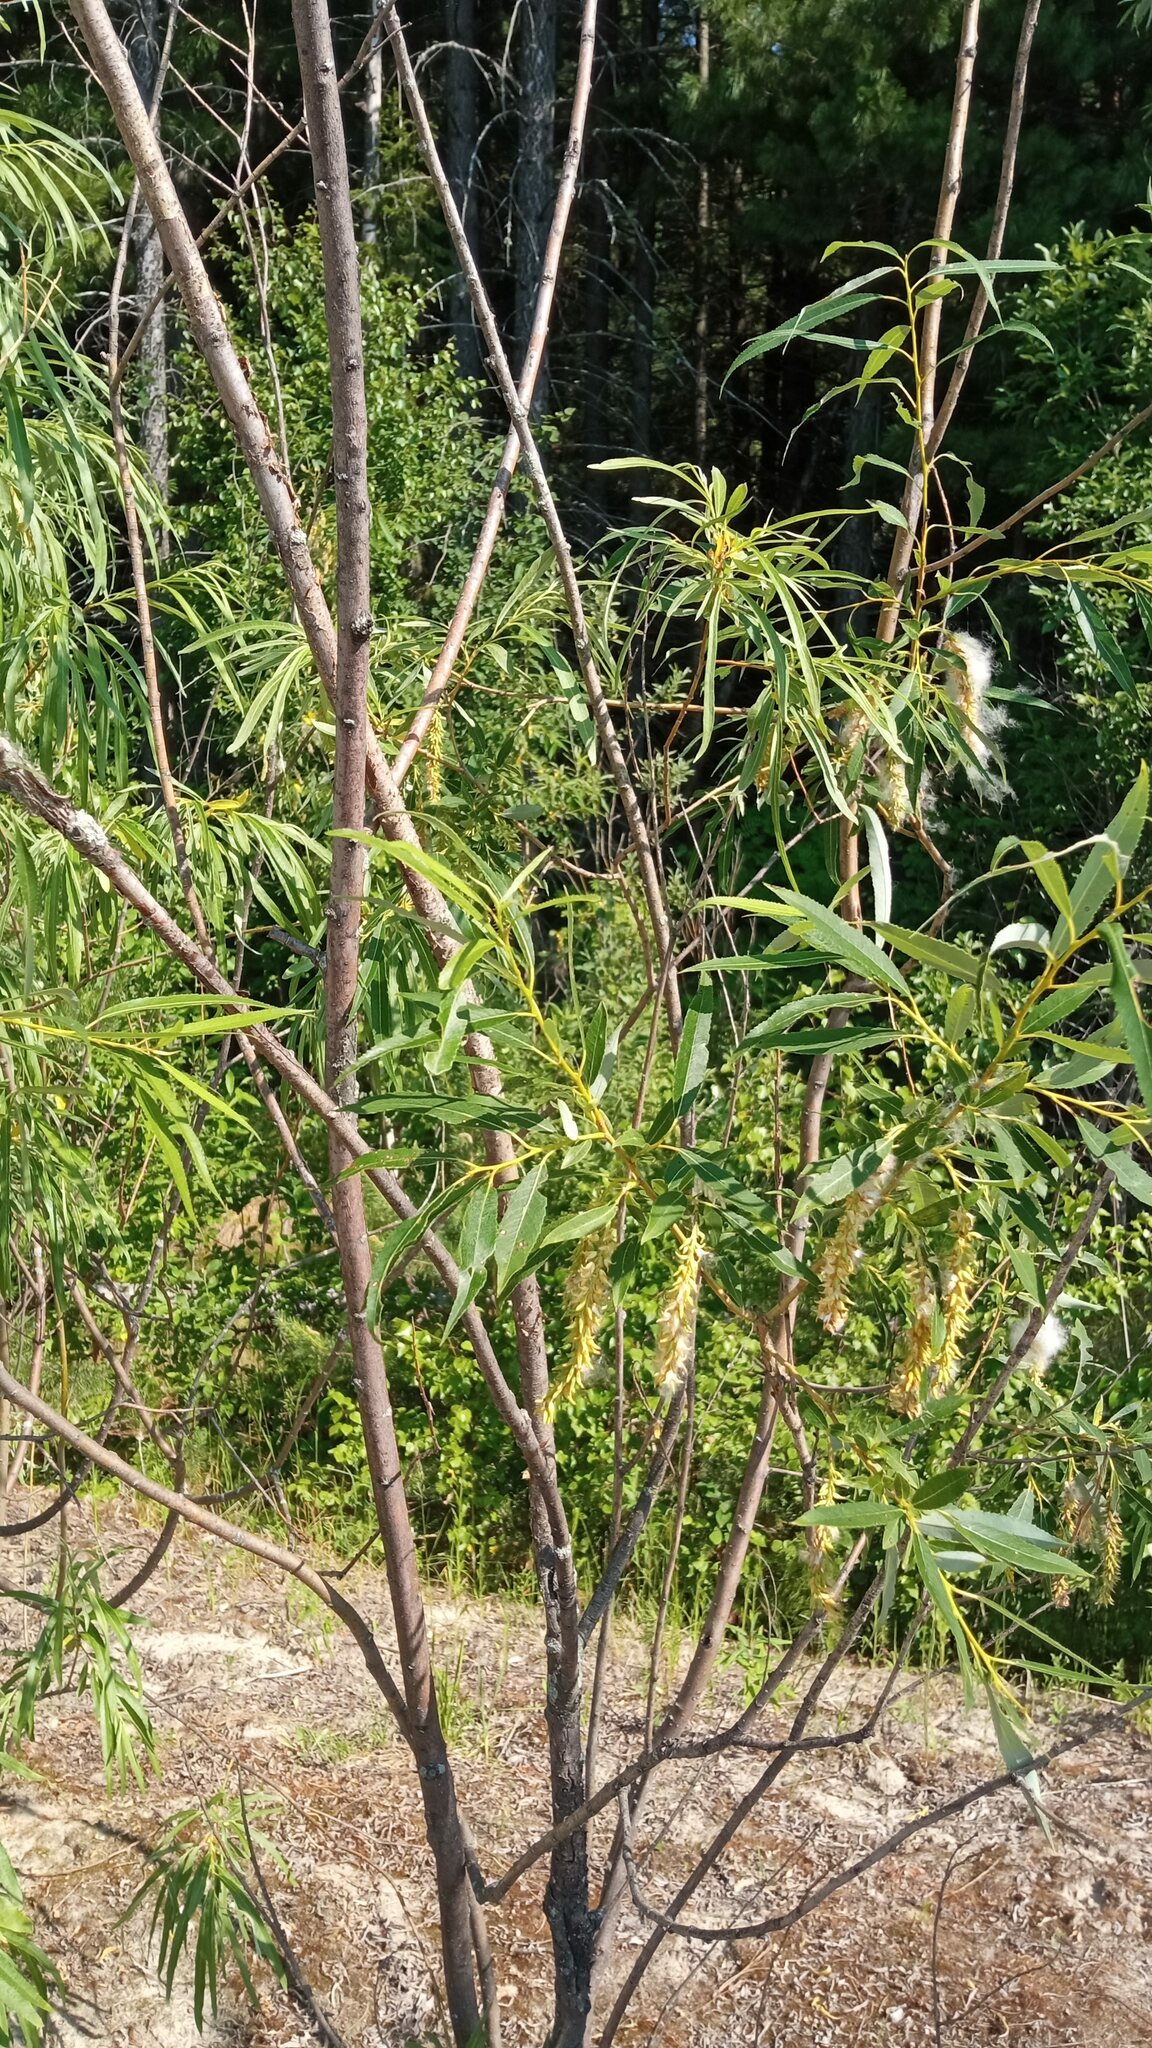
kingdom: Plantae
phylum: Tracheophyta
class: Magnoliopsida
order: Malpighiales
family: Salicaceae
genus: Salix
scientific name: Salix triandra
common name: Almond willow
